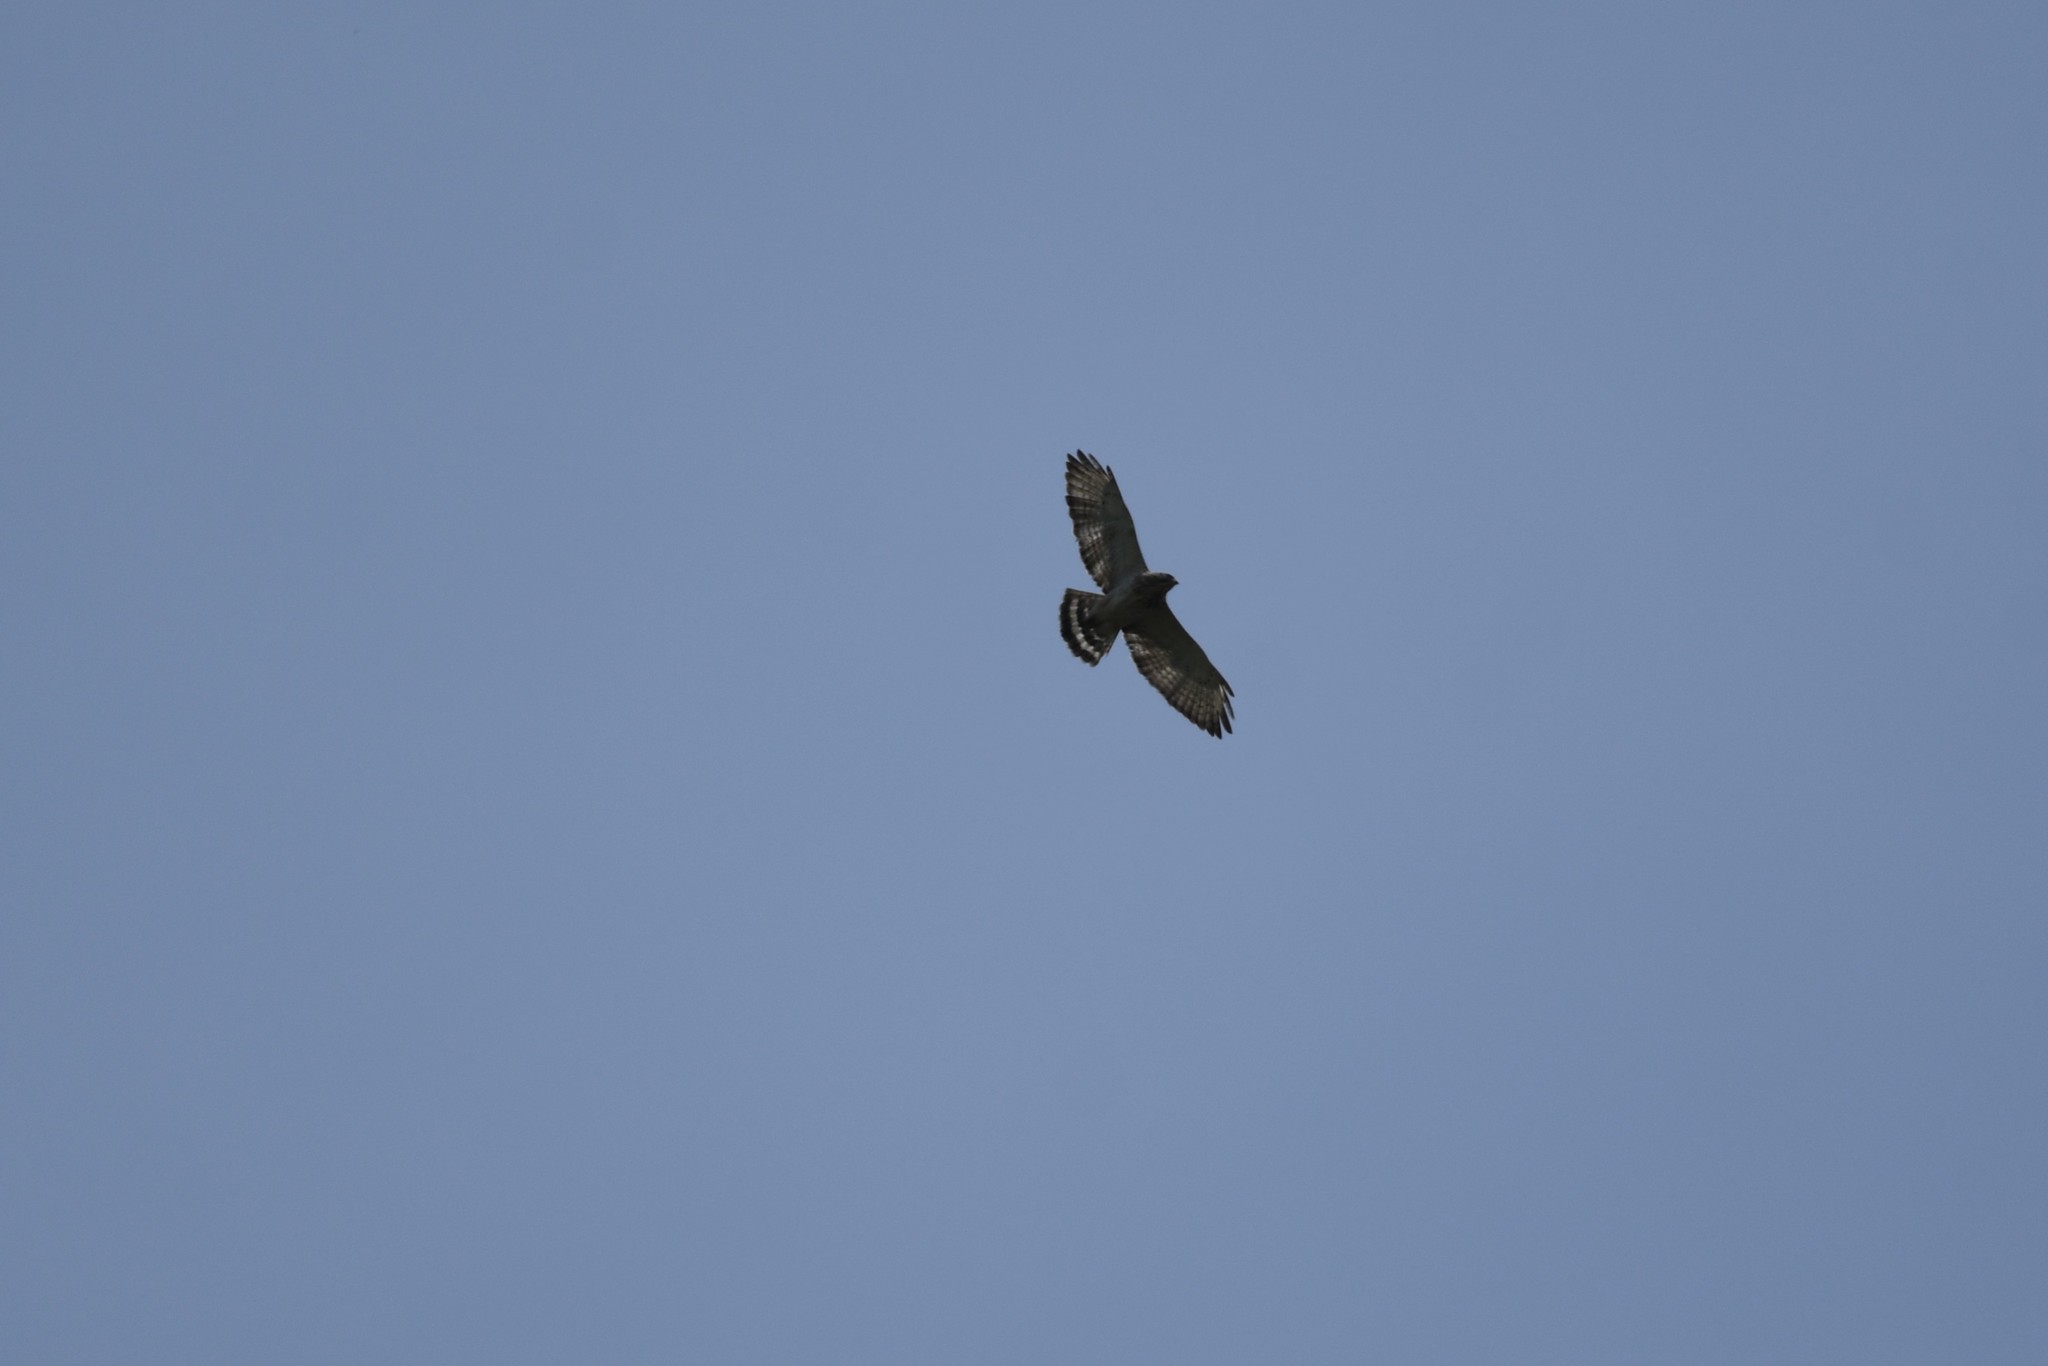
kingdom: Animalia
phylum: Chordata
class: Aves
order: Accipitriformes
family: Accipitridae
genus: Buteo
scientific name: Buteo platypterus
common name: Broad-winged hawk
